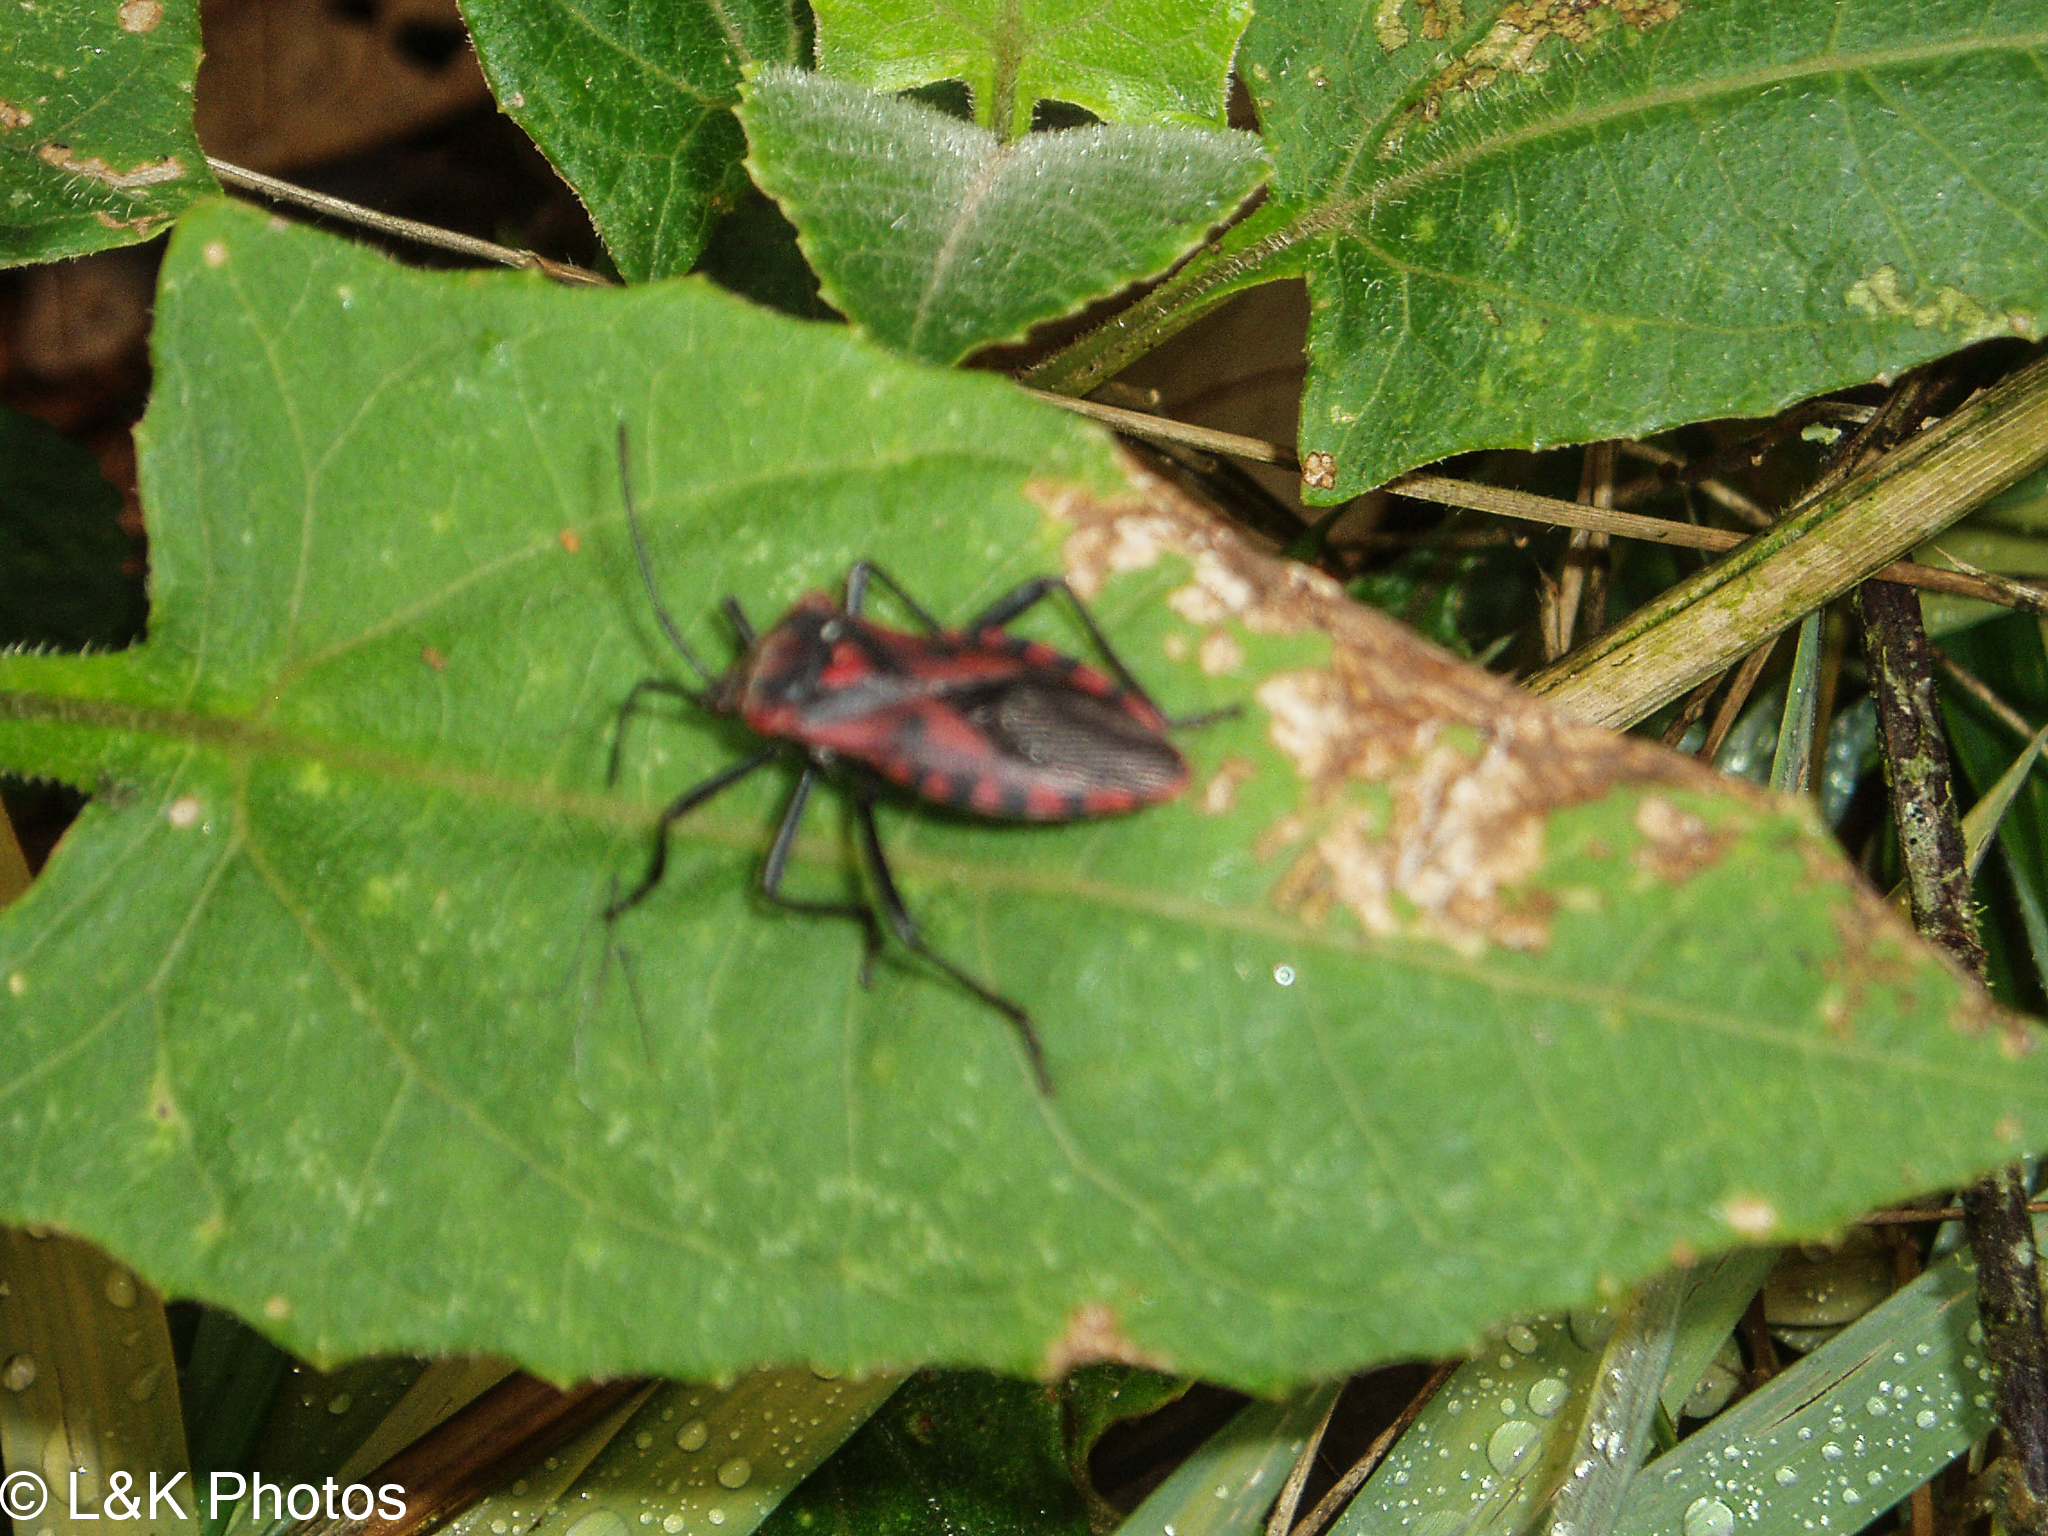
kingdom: Animalia
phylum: Arthropoda
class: Insecta
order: Hemiptera
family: Coreidae
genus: Piezogaster
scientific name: Piezogaster rubropictus
